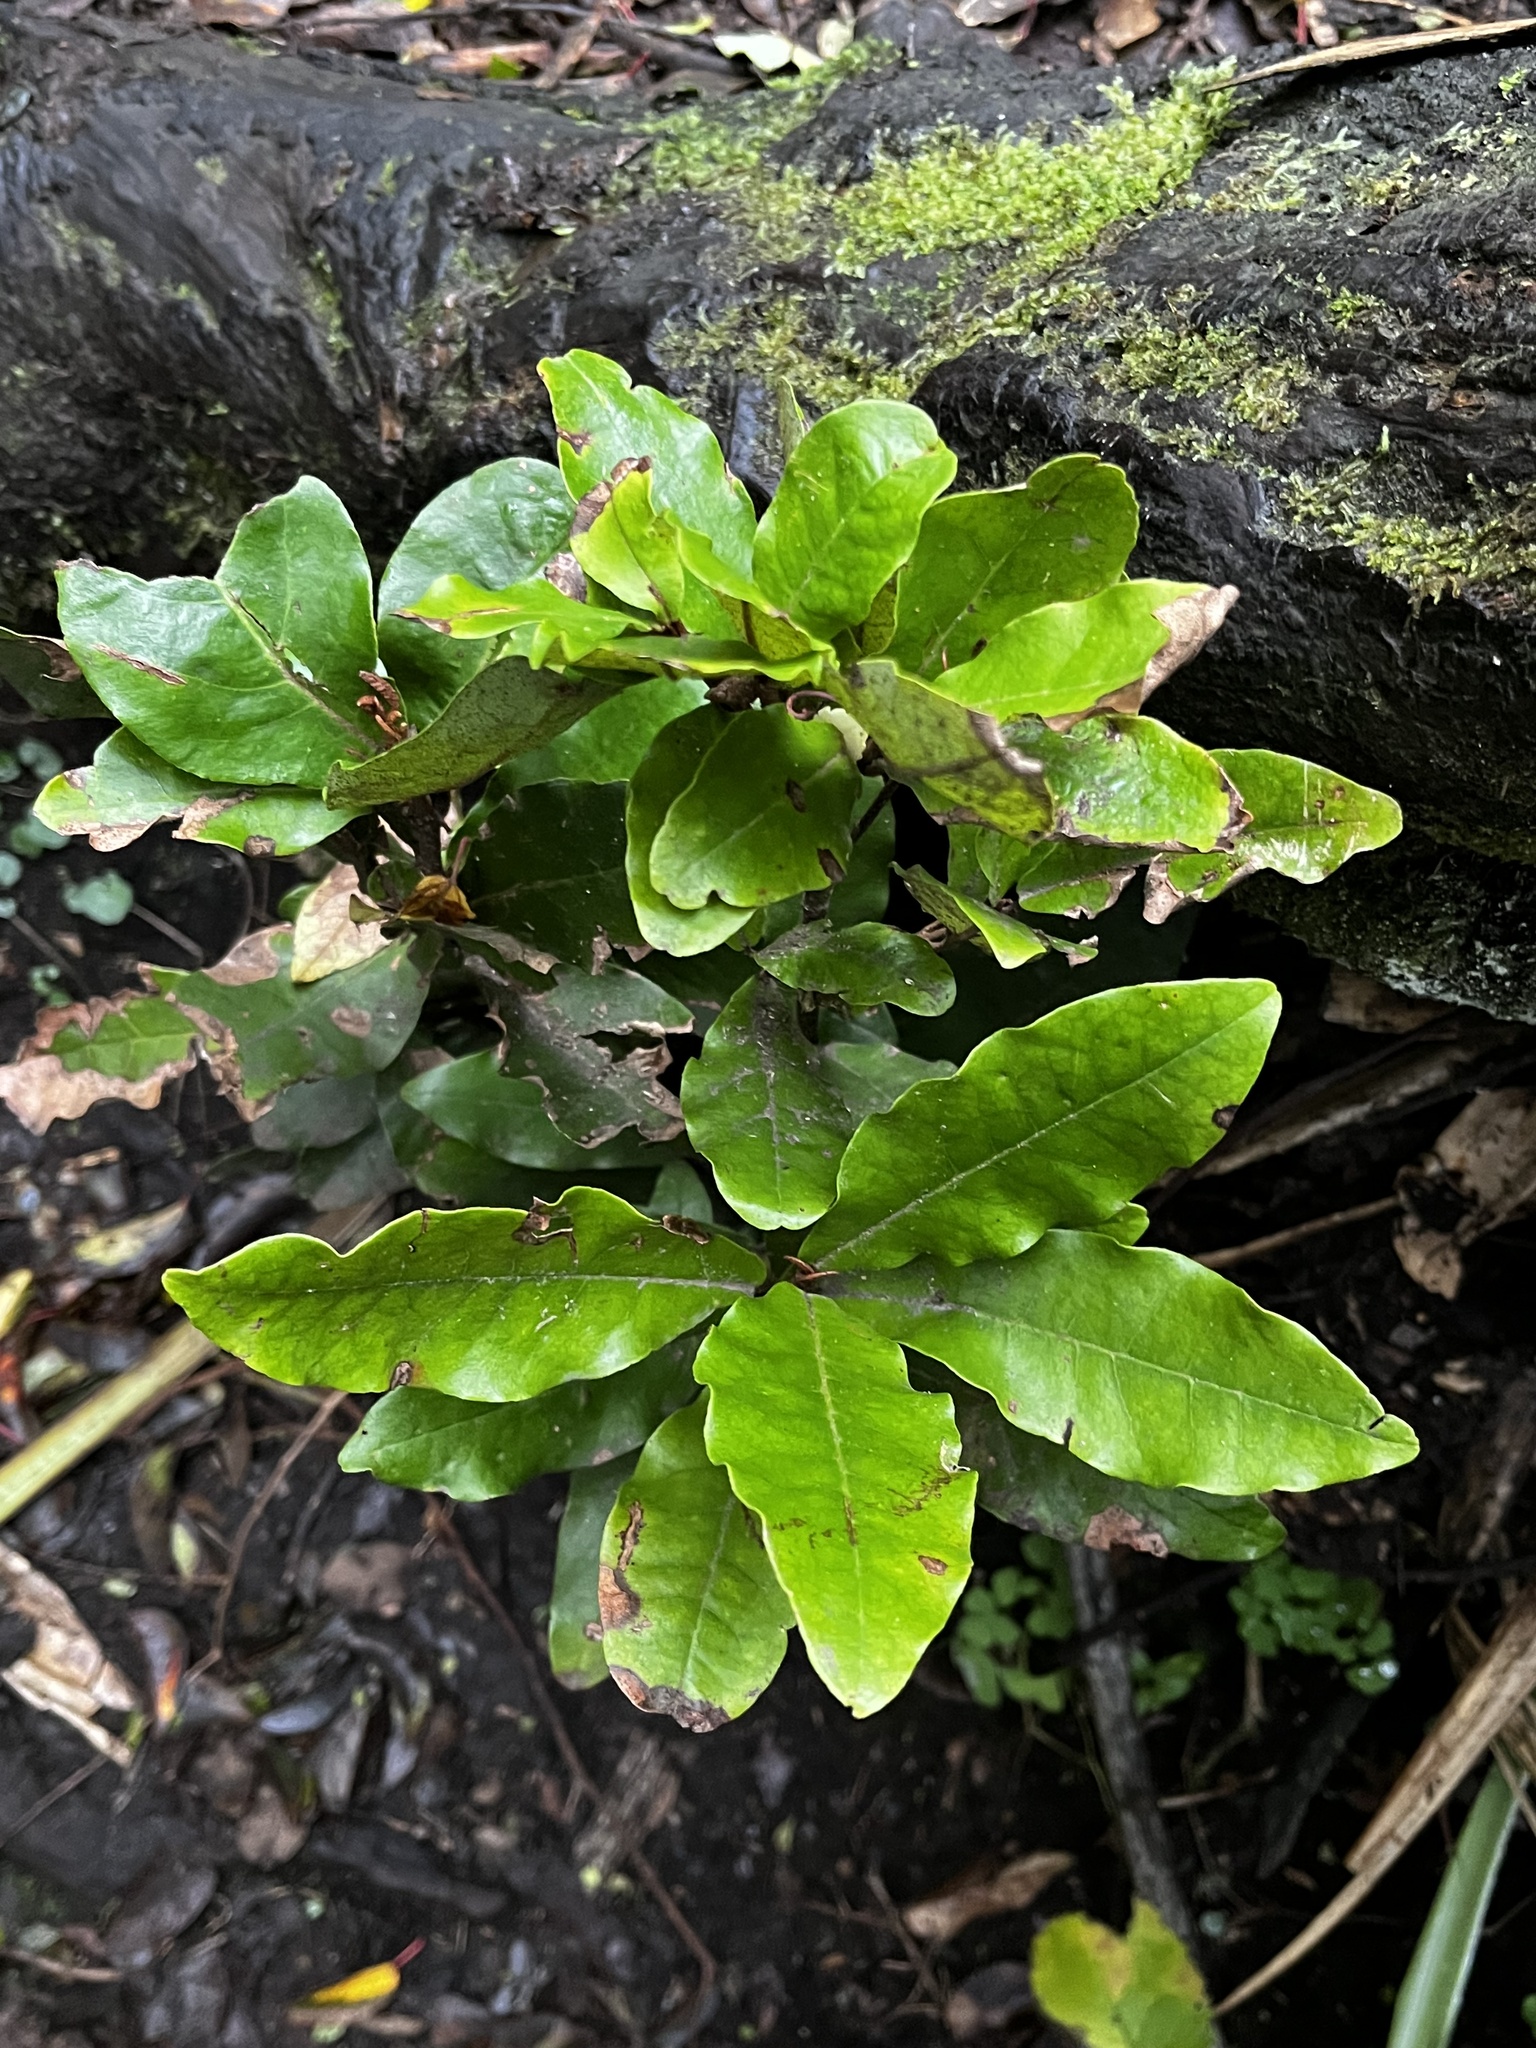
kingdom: Plantae
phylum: Tracheophyta
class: Magnoliopsida
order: Berberidopsidales
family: Aextoxicaceae
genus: Aextoxicon
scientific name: Aextoxicon punctatum
